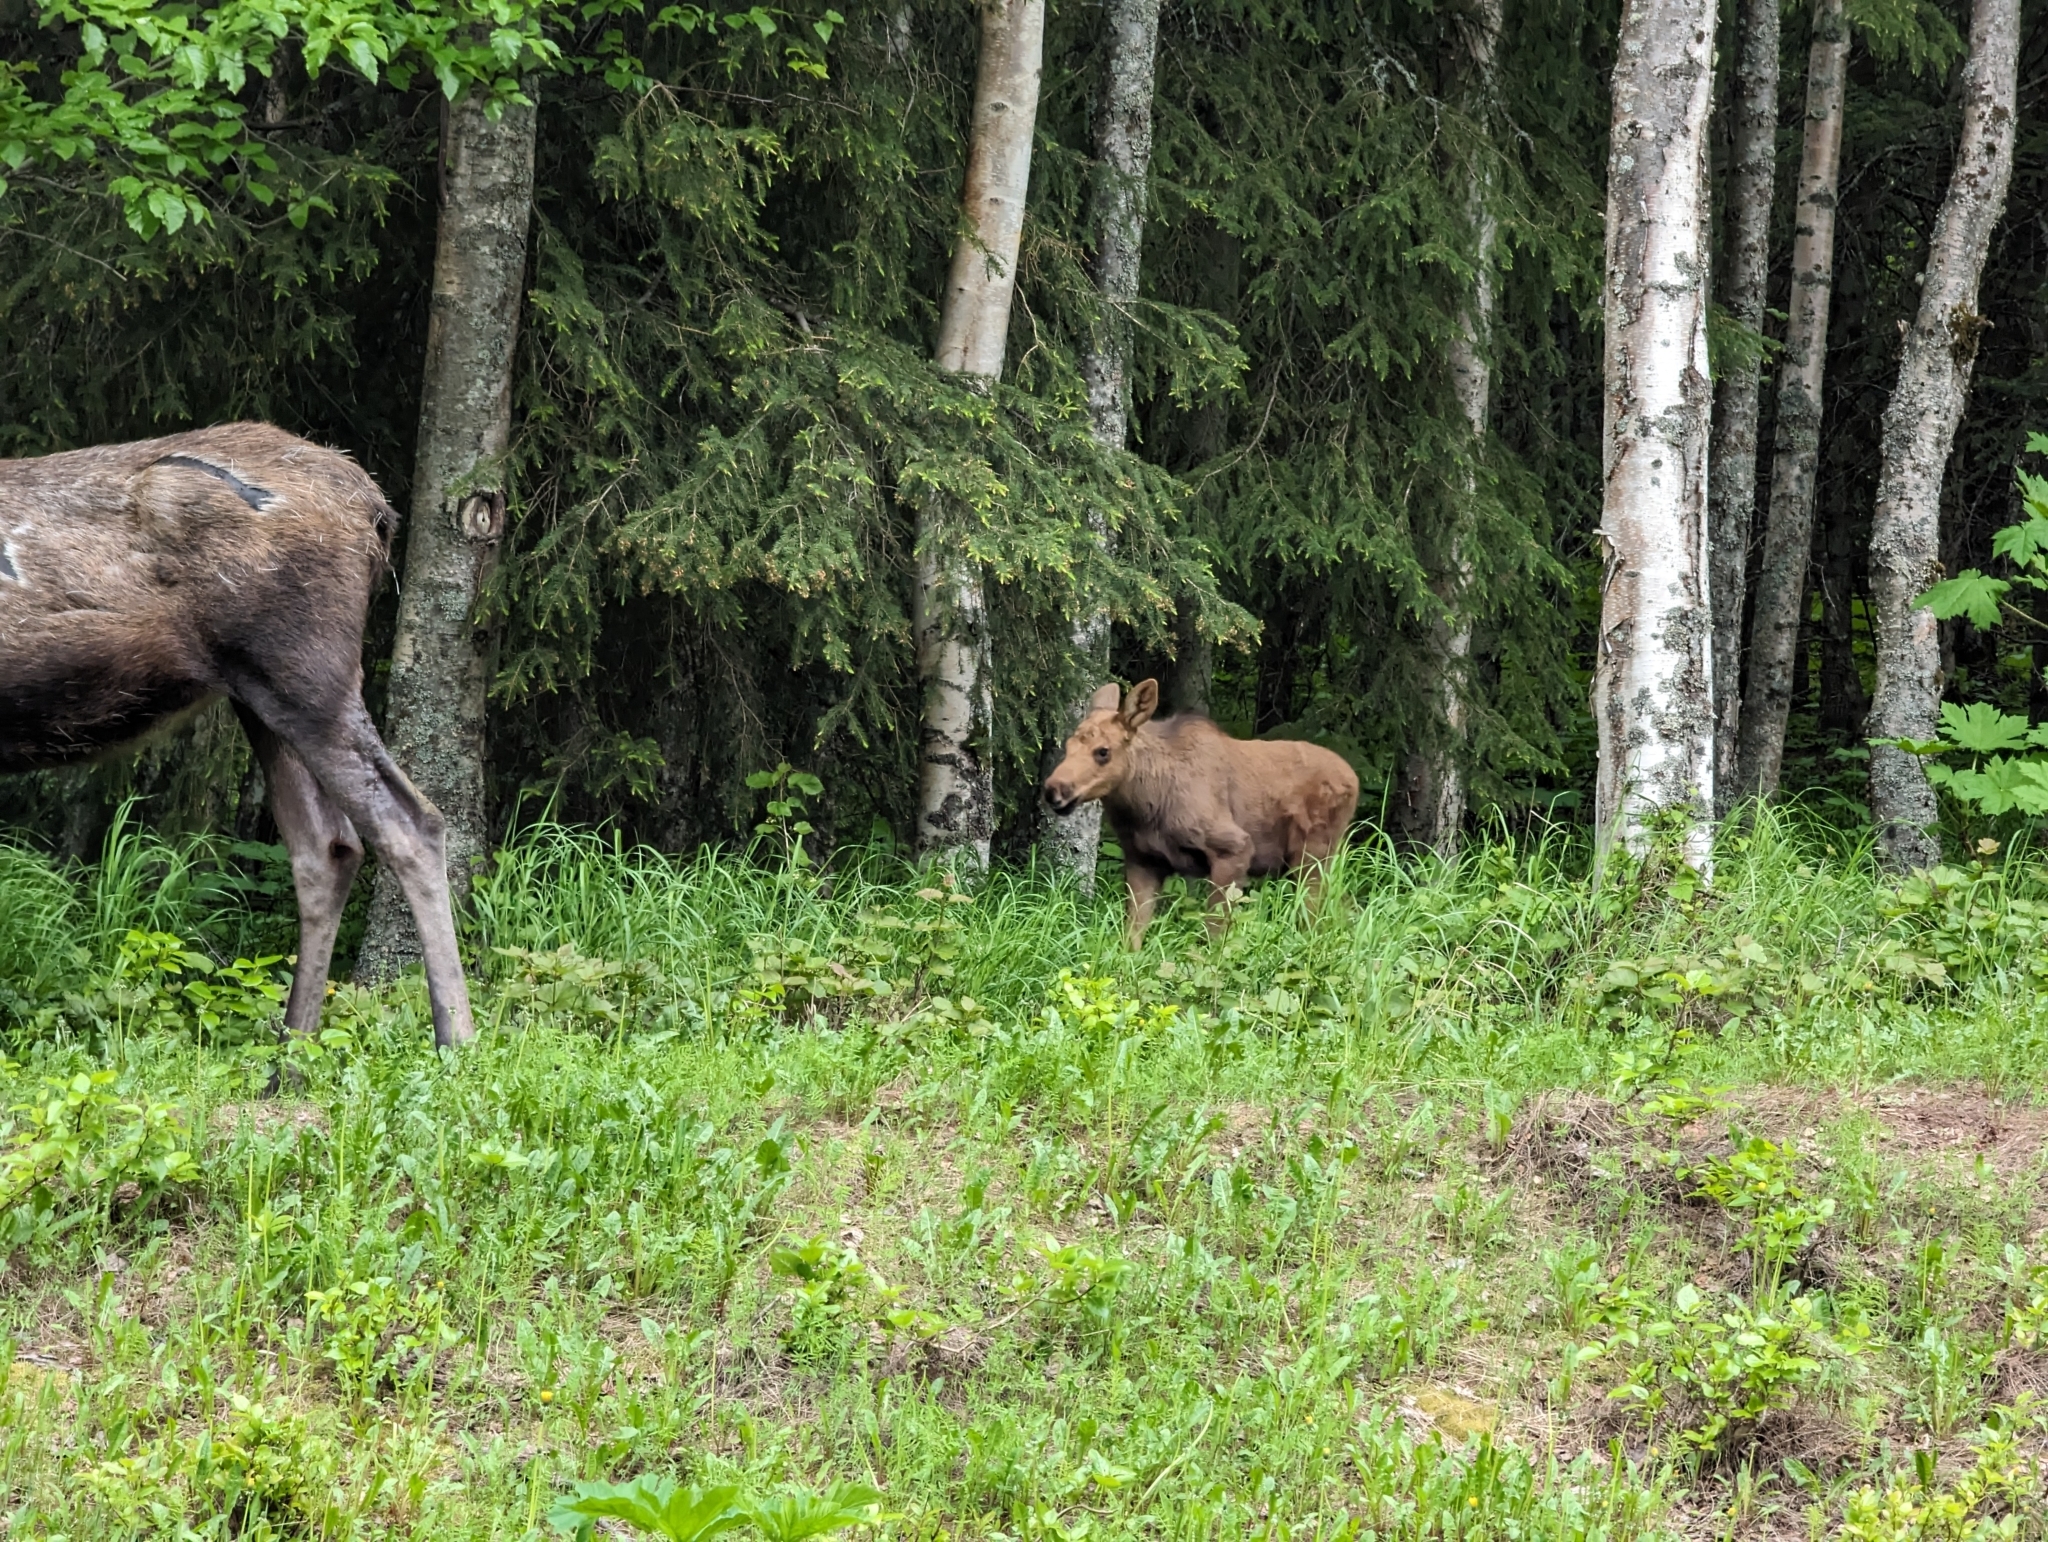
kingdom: Animalia
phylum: Chordata
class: Mammalia
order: Artiodactyla
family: Cervidae
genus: Alces
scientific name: Alces alces
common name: Moose
